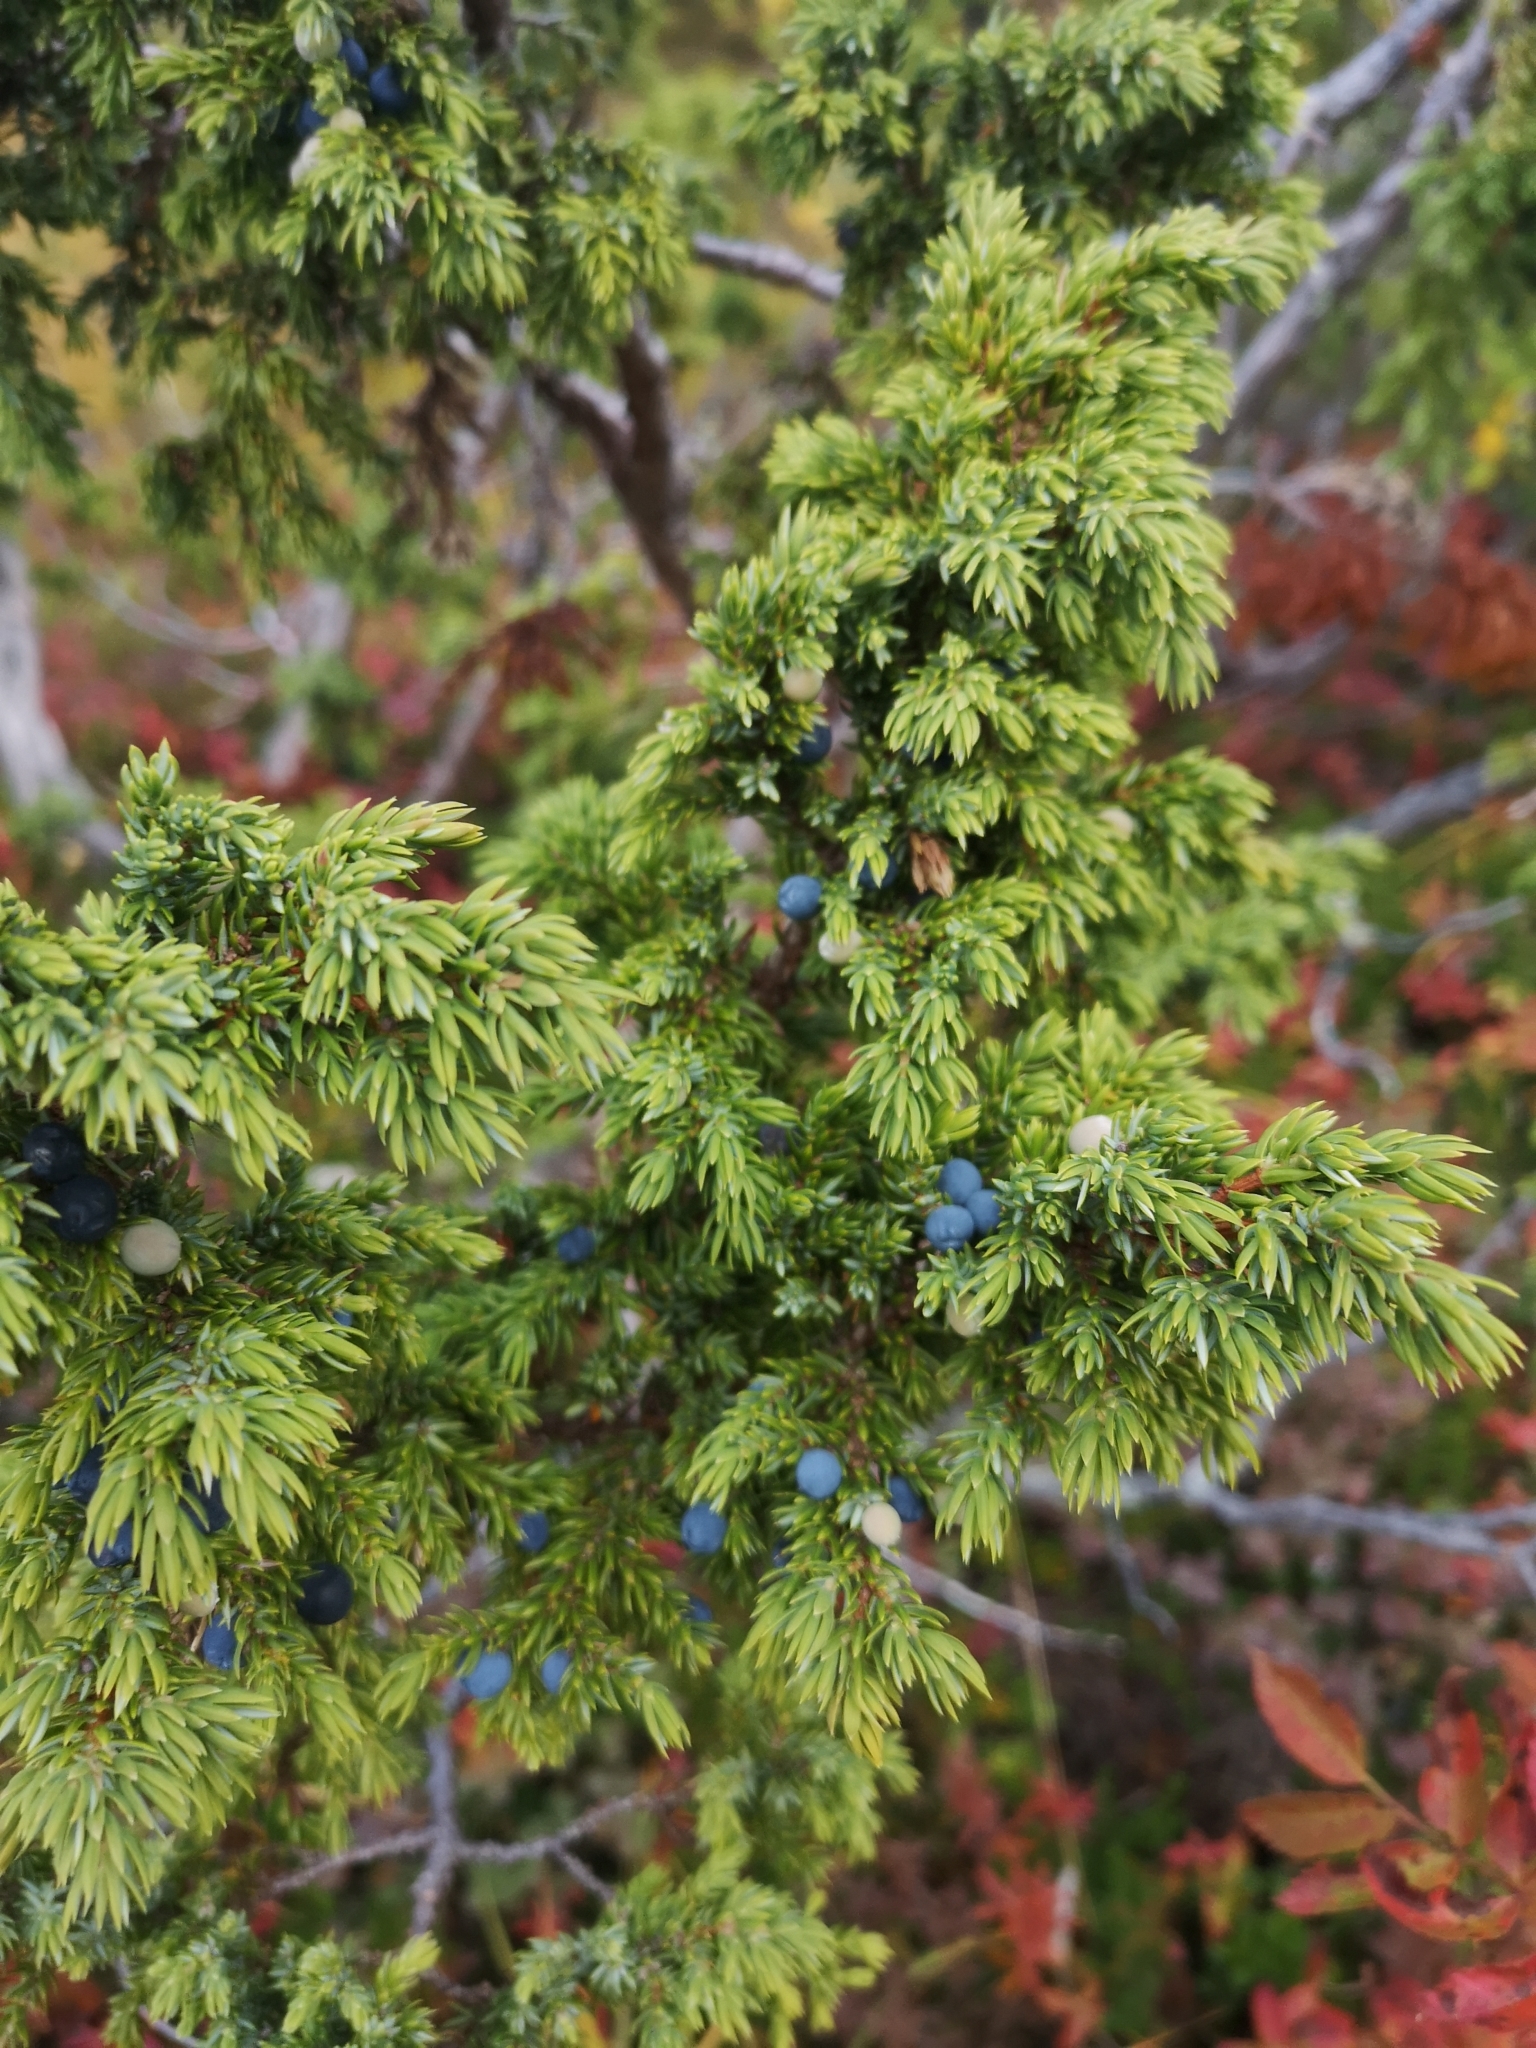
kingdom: Plantae
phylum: Tracheophyta
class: Pinopsida
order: Pinales
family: Cupressaceae
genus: Juniperus
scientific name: Juniperus communis
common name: Common juniper
